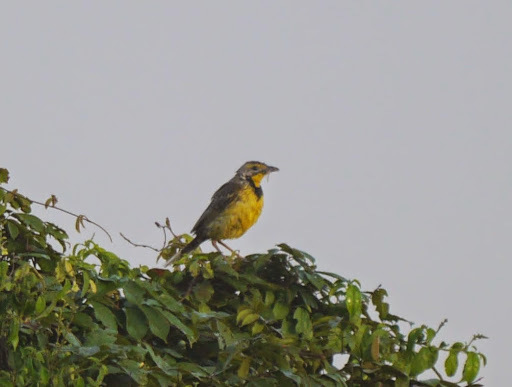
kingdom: Animalia
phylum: Chordata
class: Aves
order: Passeriformes
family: Motacillidae
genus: Macronyx
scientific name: Macronyx croceus
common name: Yellow-throated longclaw
